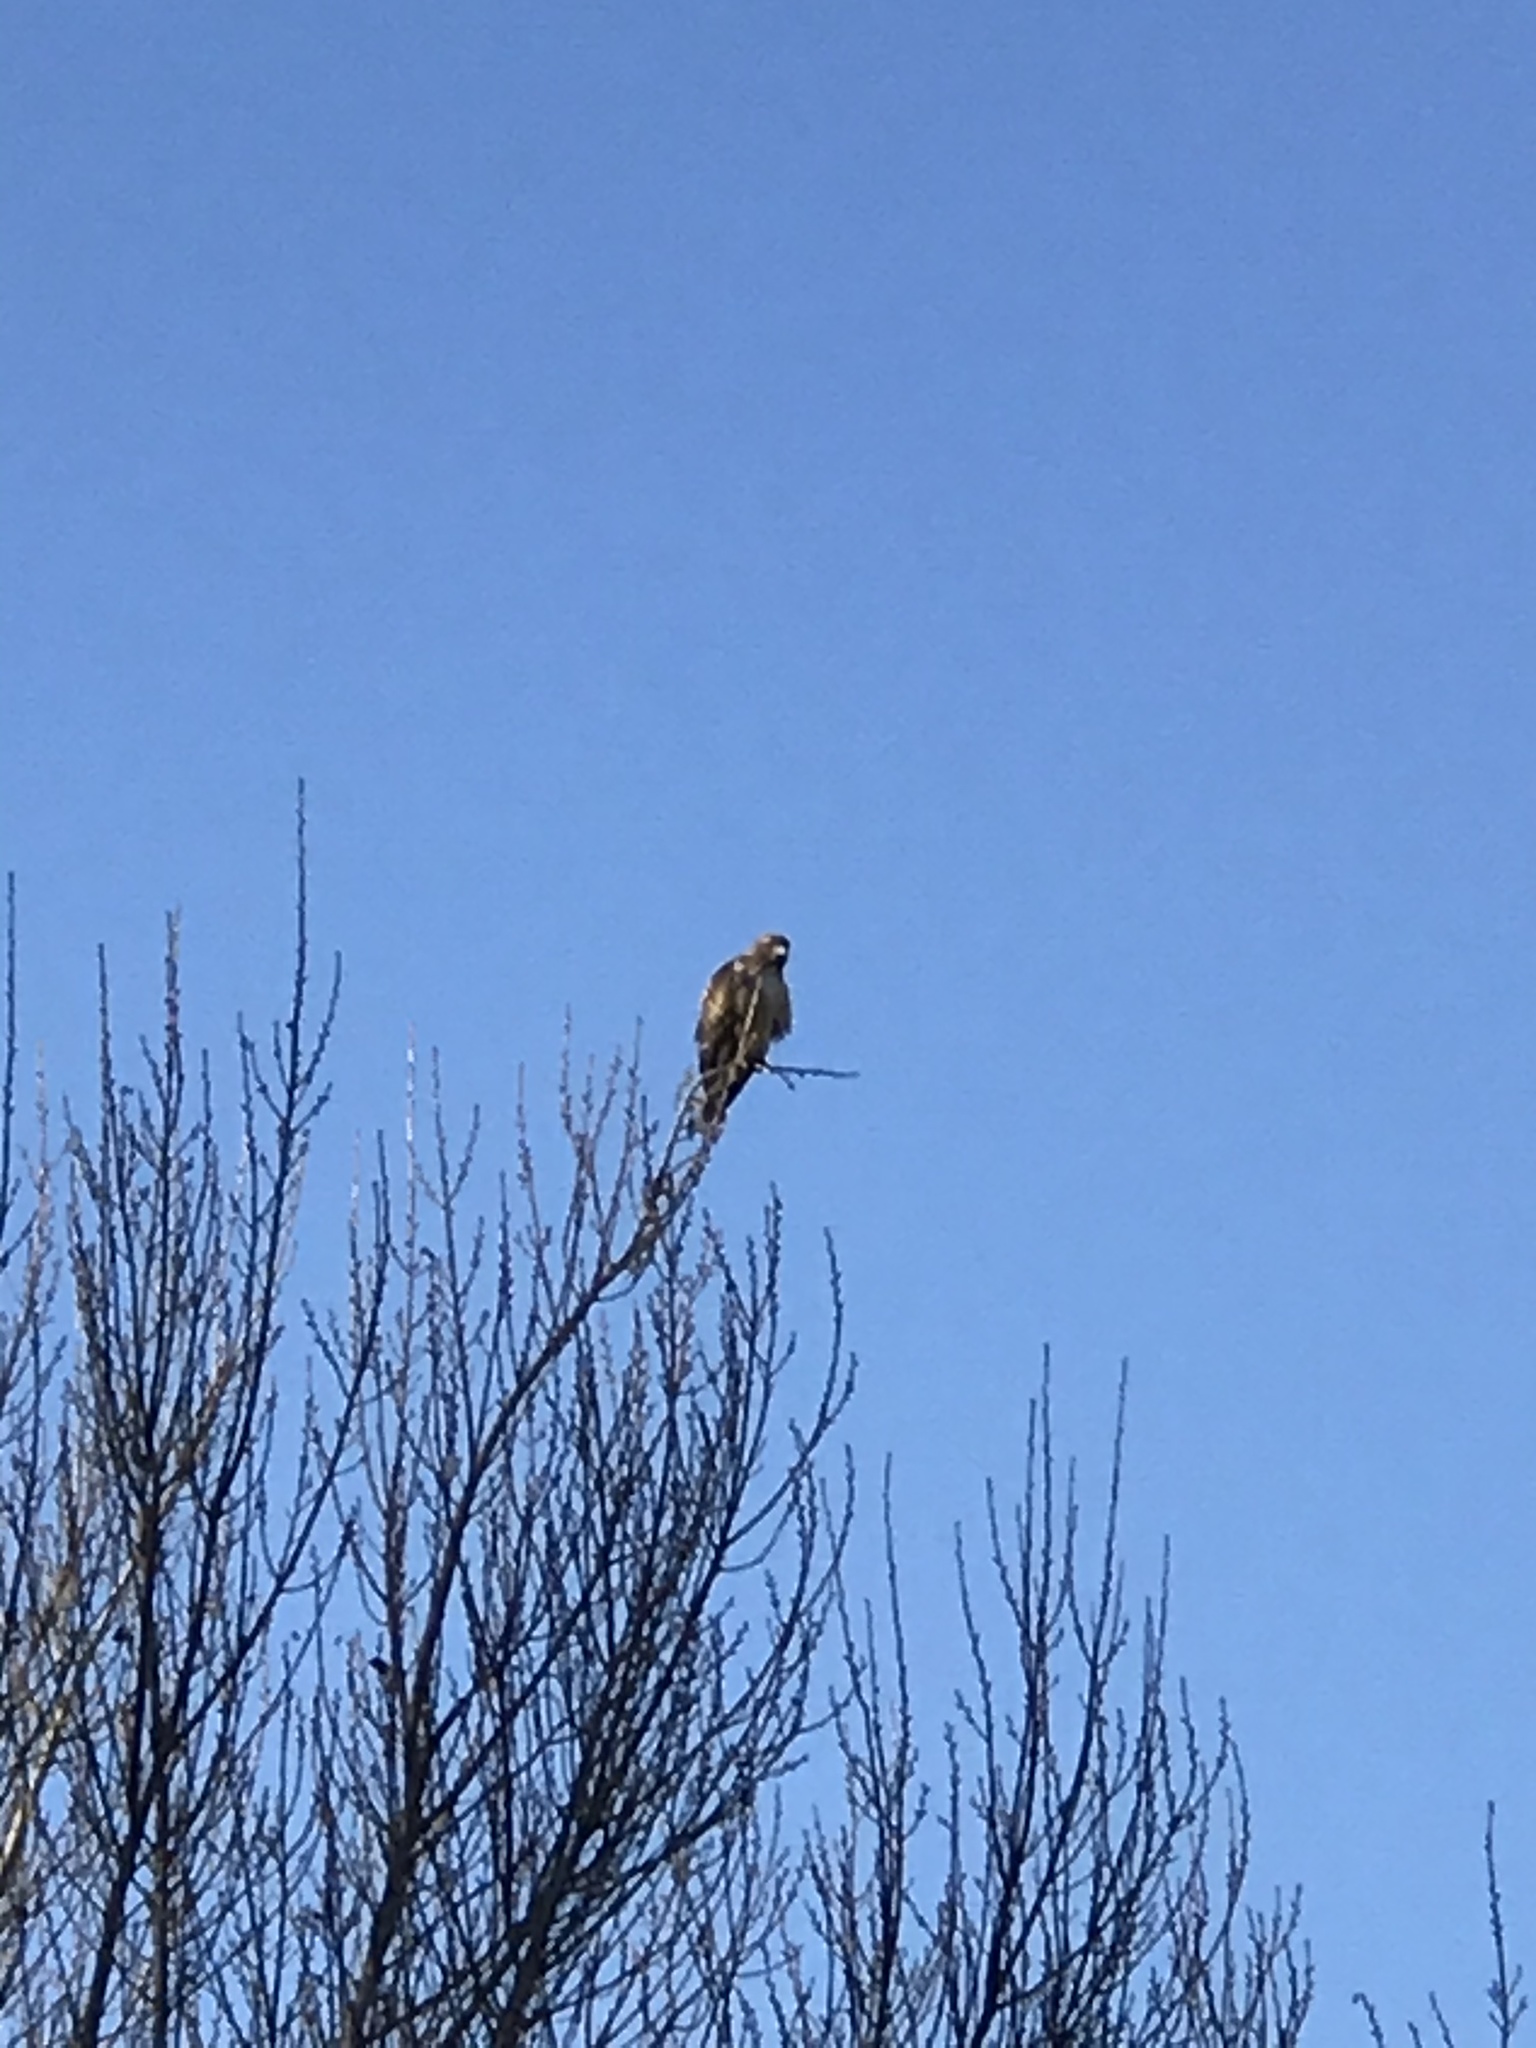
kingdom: Animalia
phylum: Chordata
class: Aves
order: Accipitriformes
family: Accipitridae
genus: Buteo
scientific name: Buteo jamaicensis
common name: Red-tailed hawk
